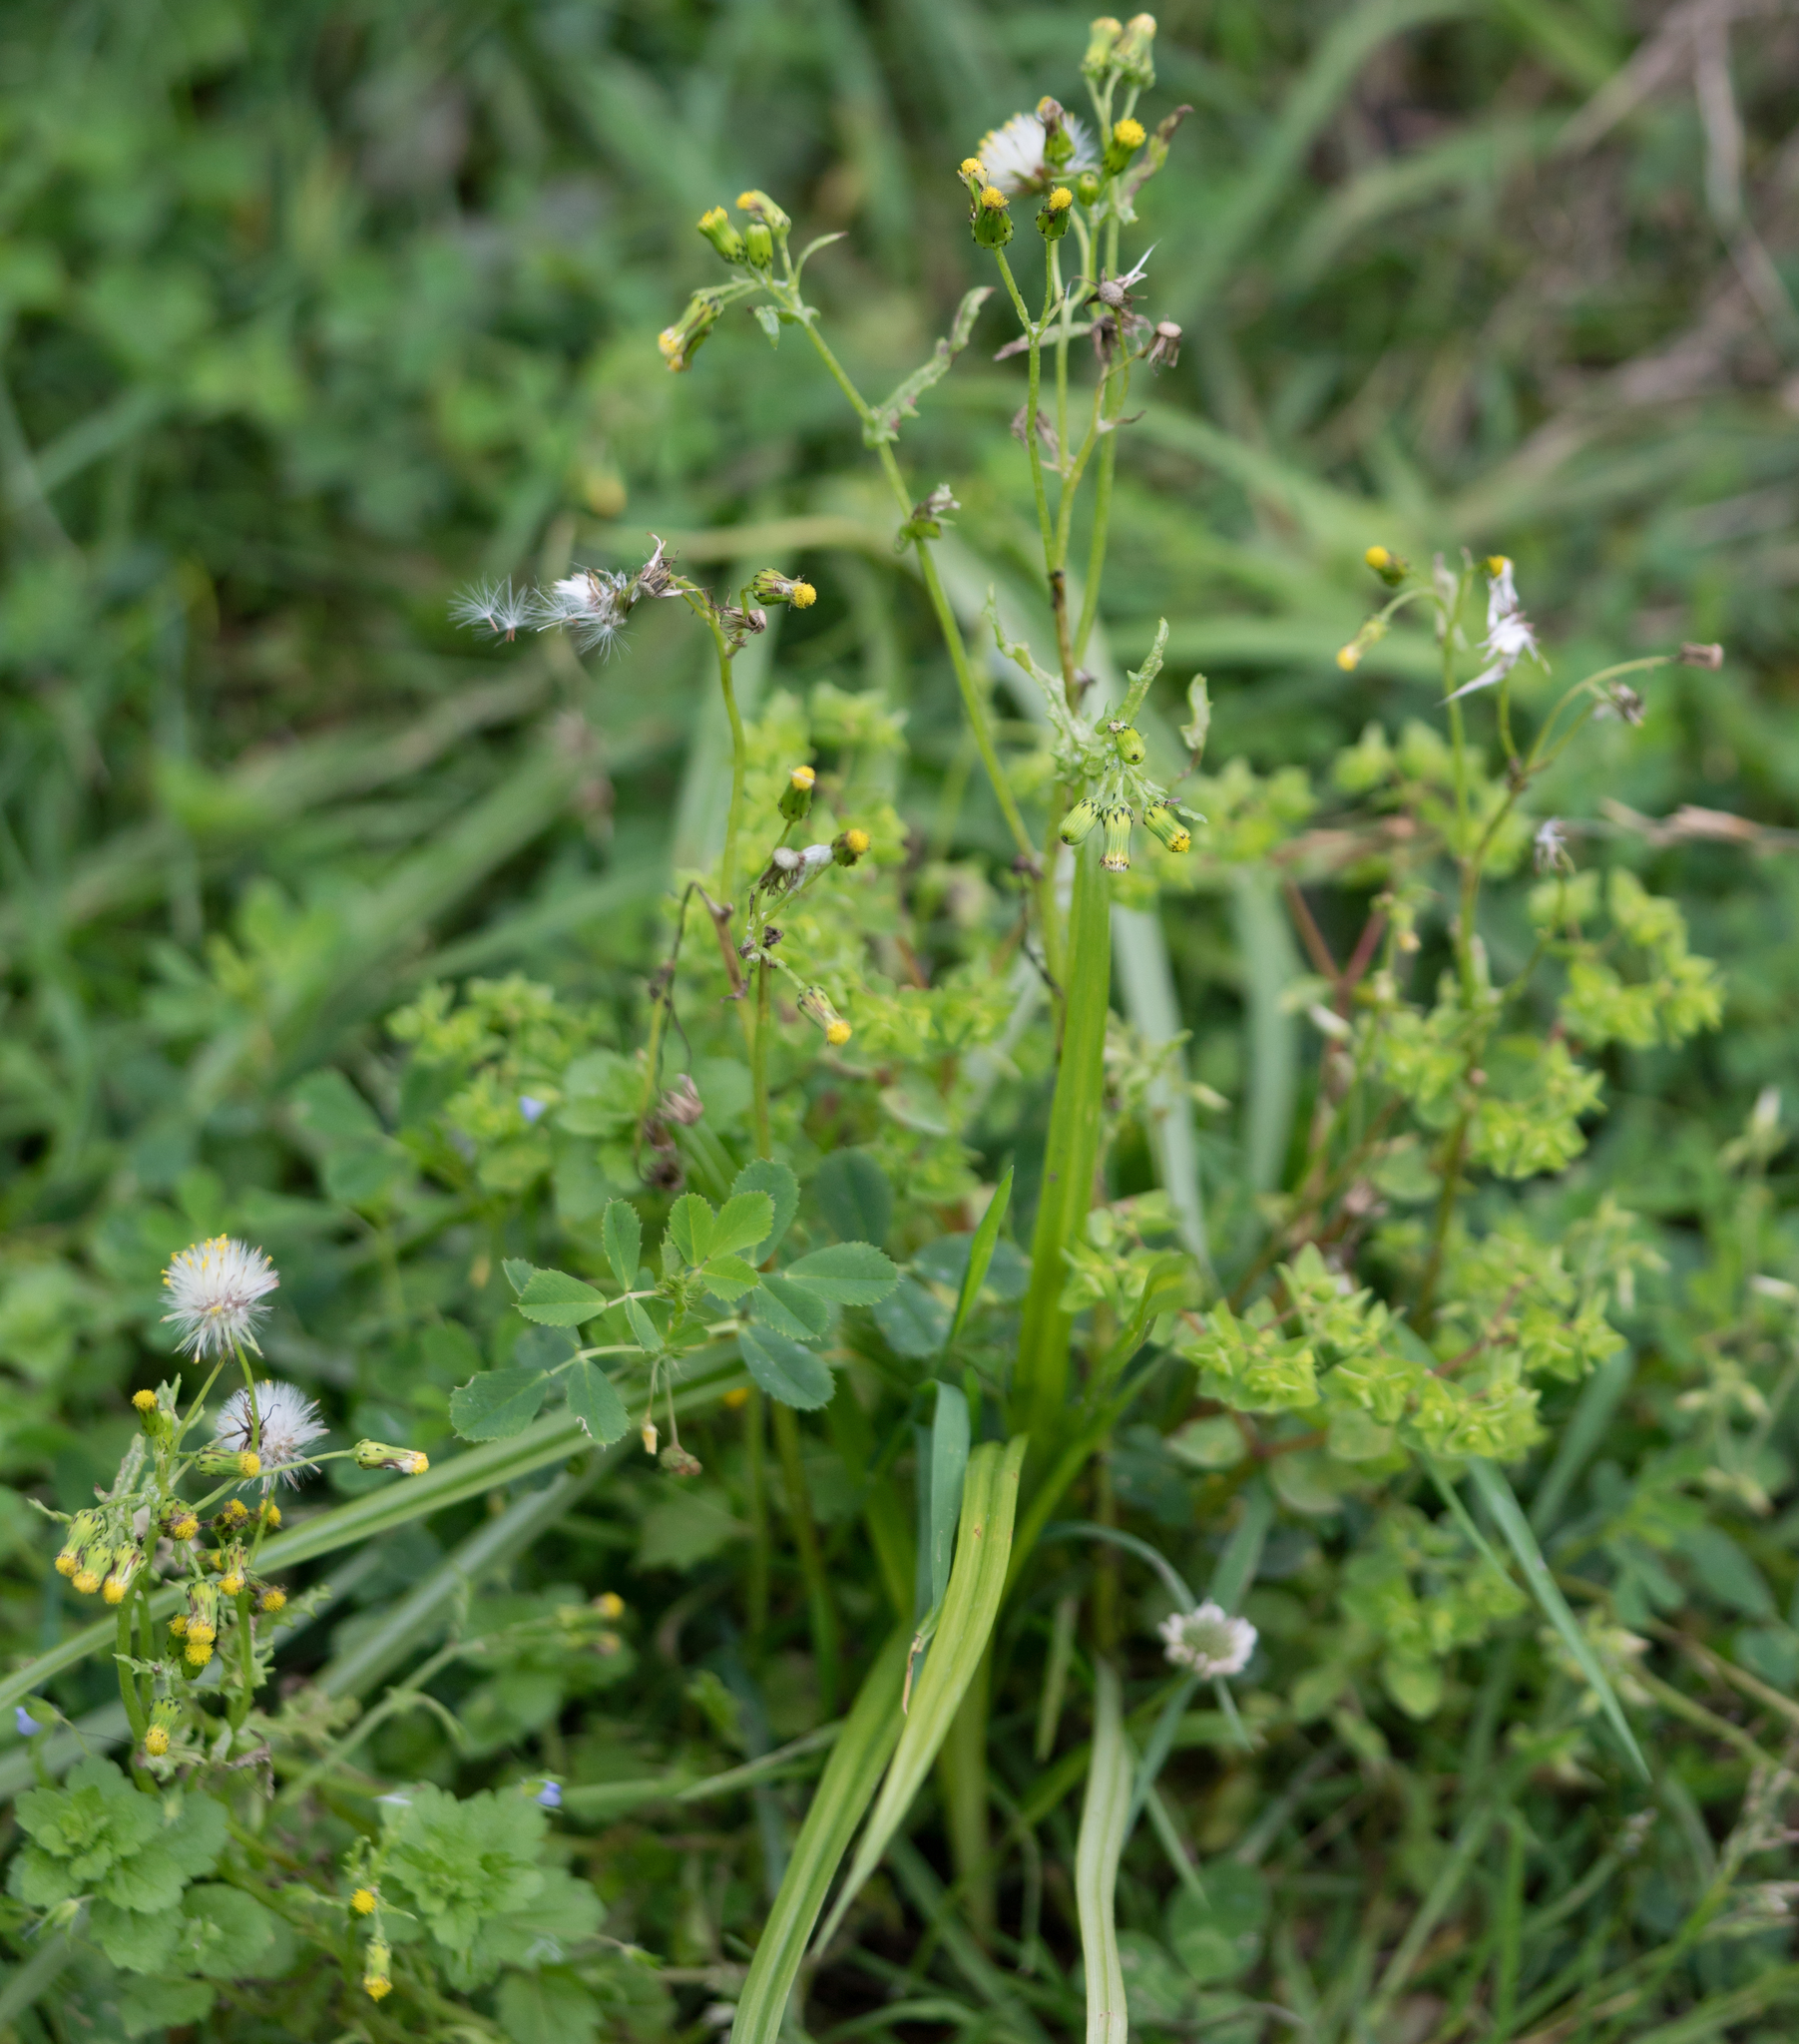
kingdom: Plantae
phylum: Tracheophyta
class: Magnoliopsida
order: Asterales
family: Asteraceae
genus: Senecio
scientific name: Senecio vulgaris
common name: Old-man-in-the-spring
